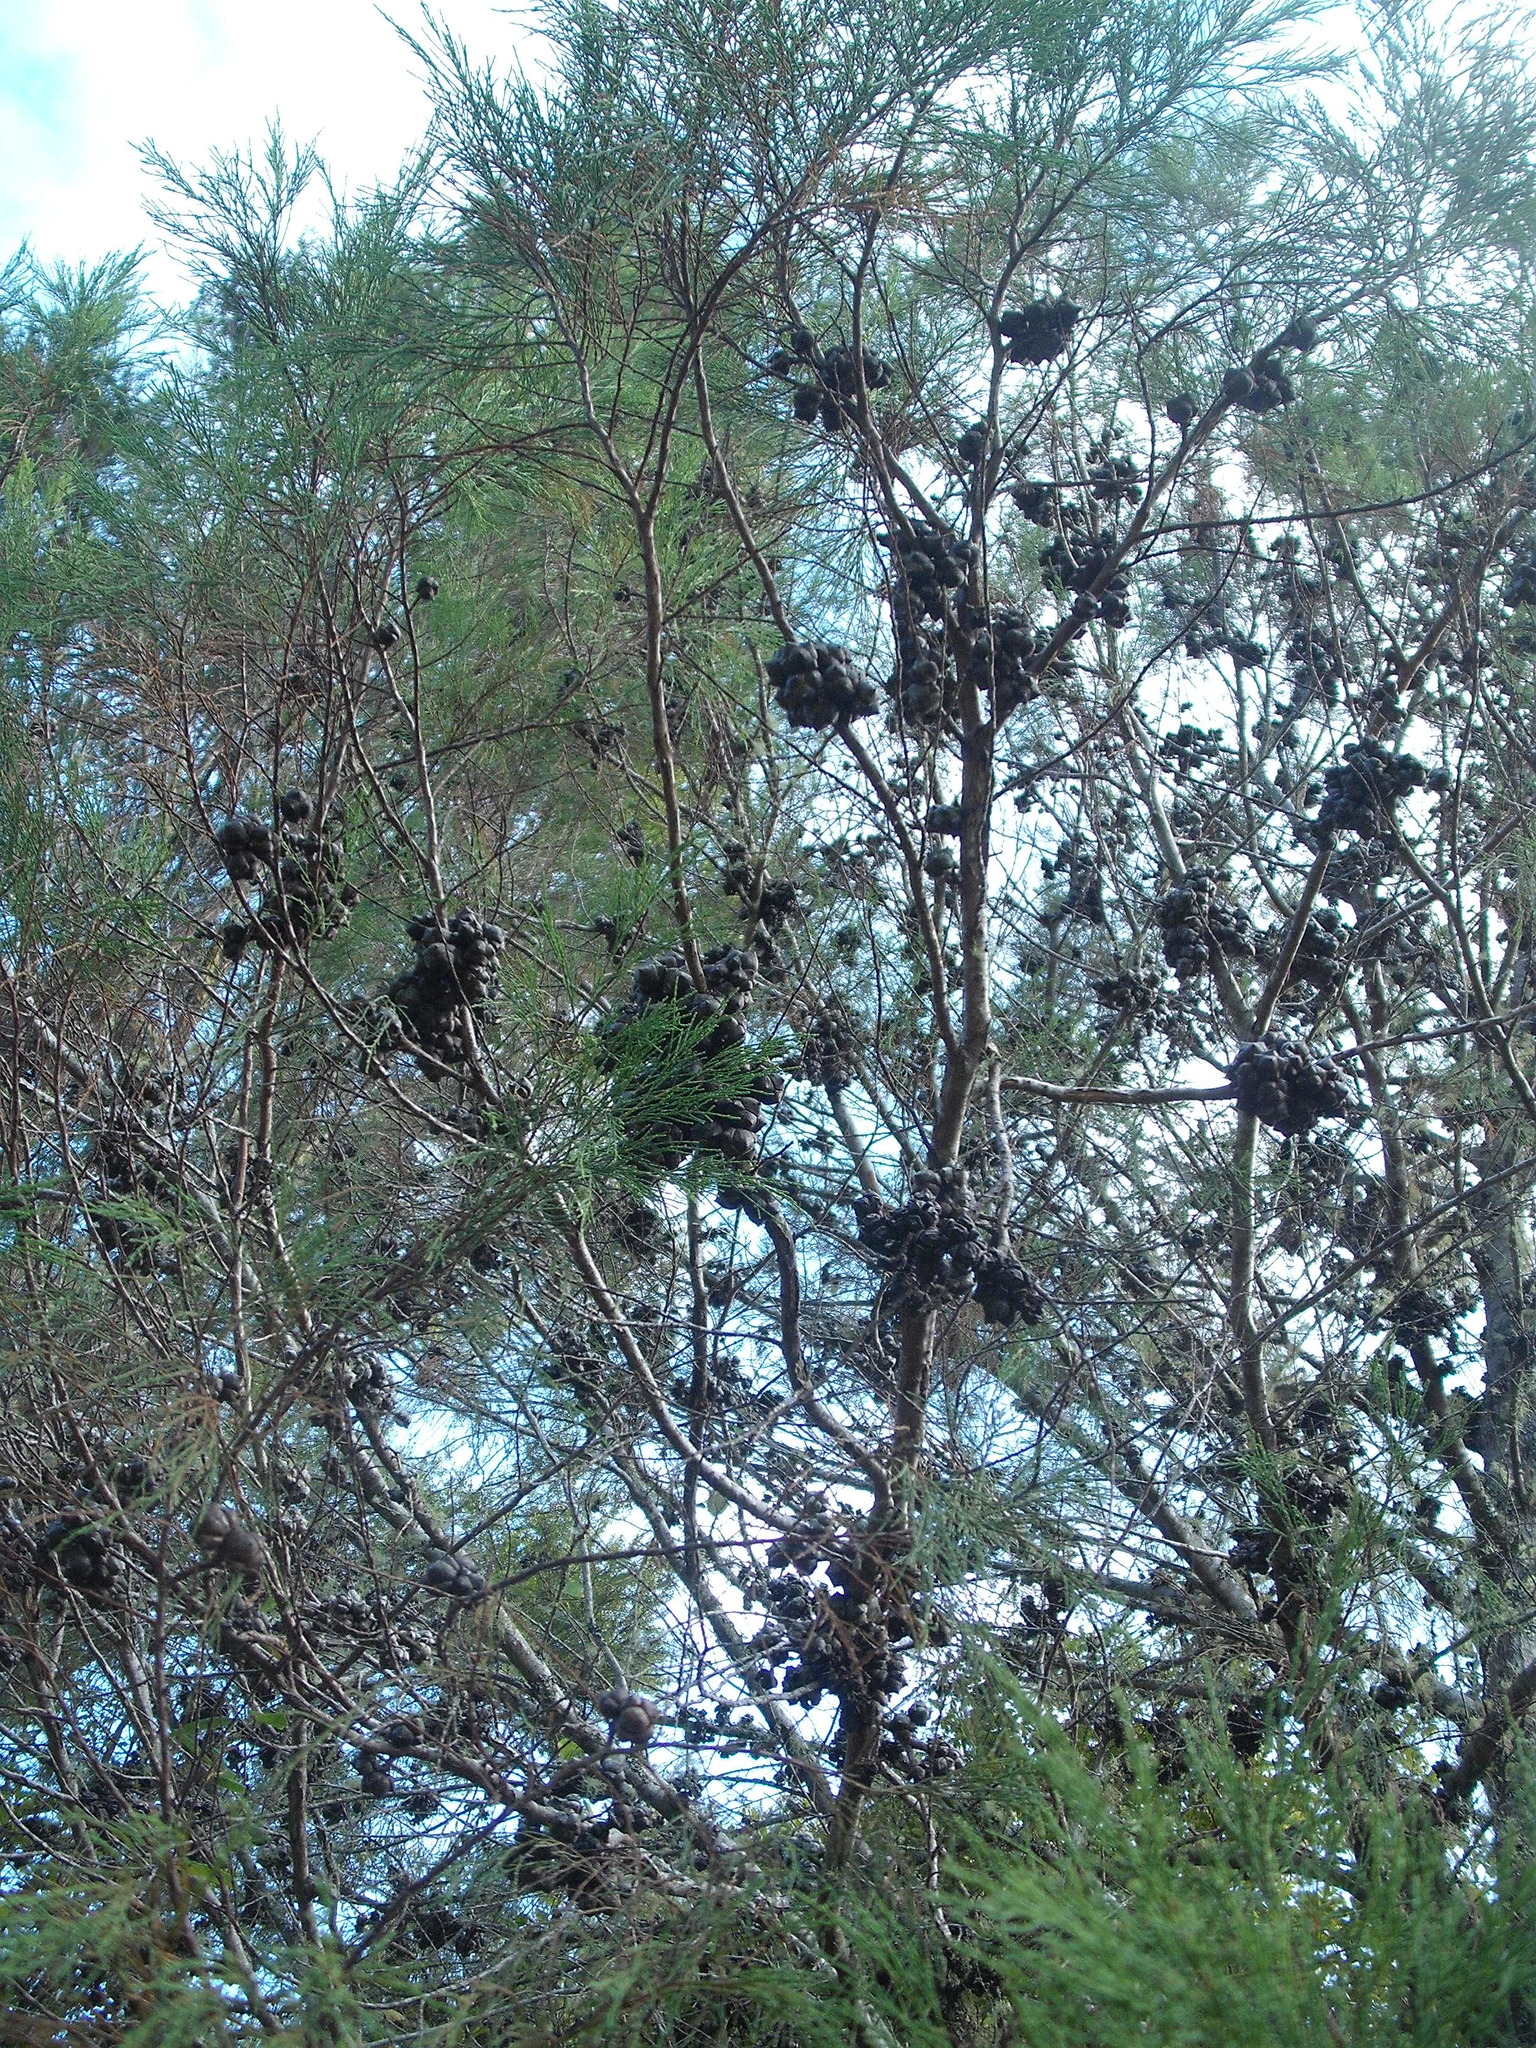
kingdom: Plantae
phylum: Tracheophyta
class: Pinopsida
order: Pinales
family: Cupressaceae
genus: Callitris
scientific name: Callitris rhomboidea
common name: Illawara mountain pine
